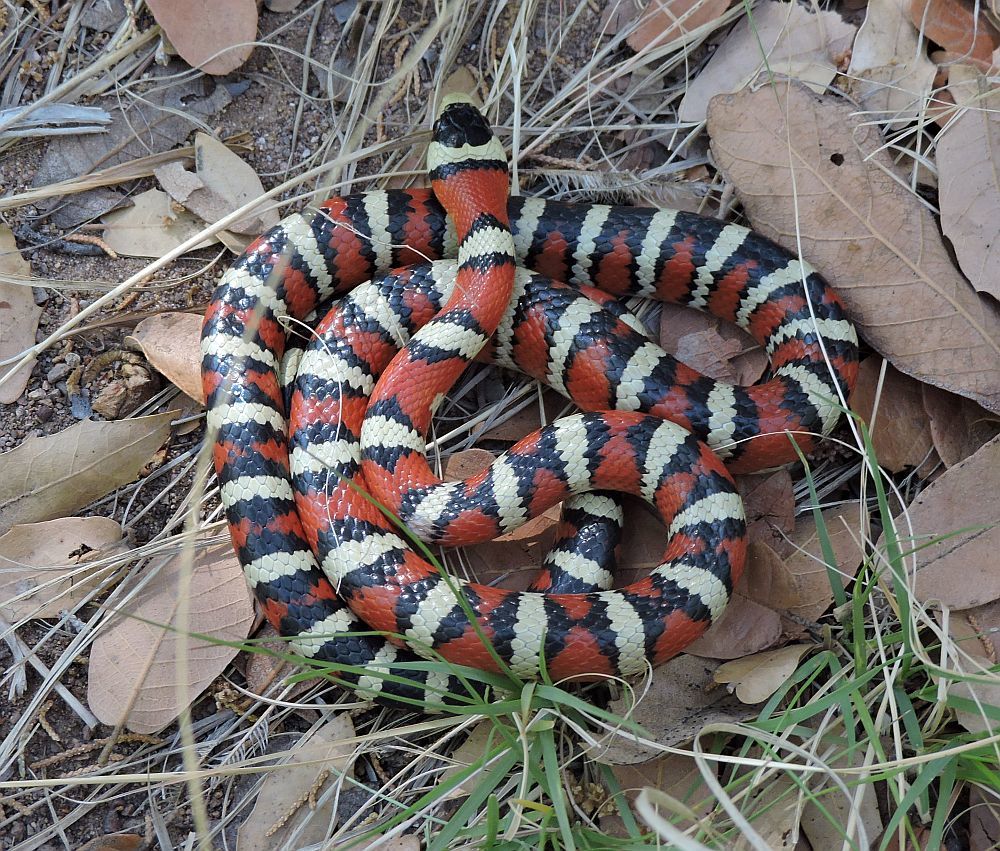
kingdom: Animalia
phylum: Chordata
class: Squamata
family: Colubridae
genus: Lampropeltis
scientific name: Lampropeltis pyromelana
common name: Sonoran mountain kingsnake
